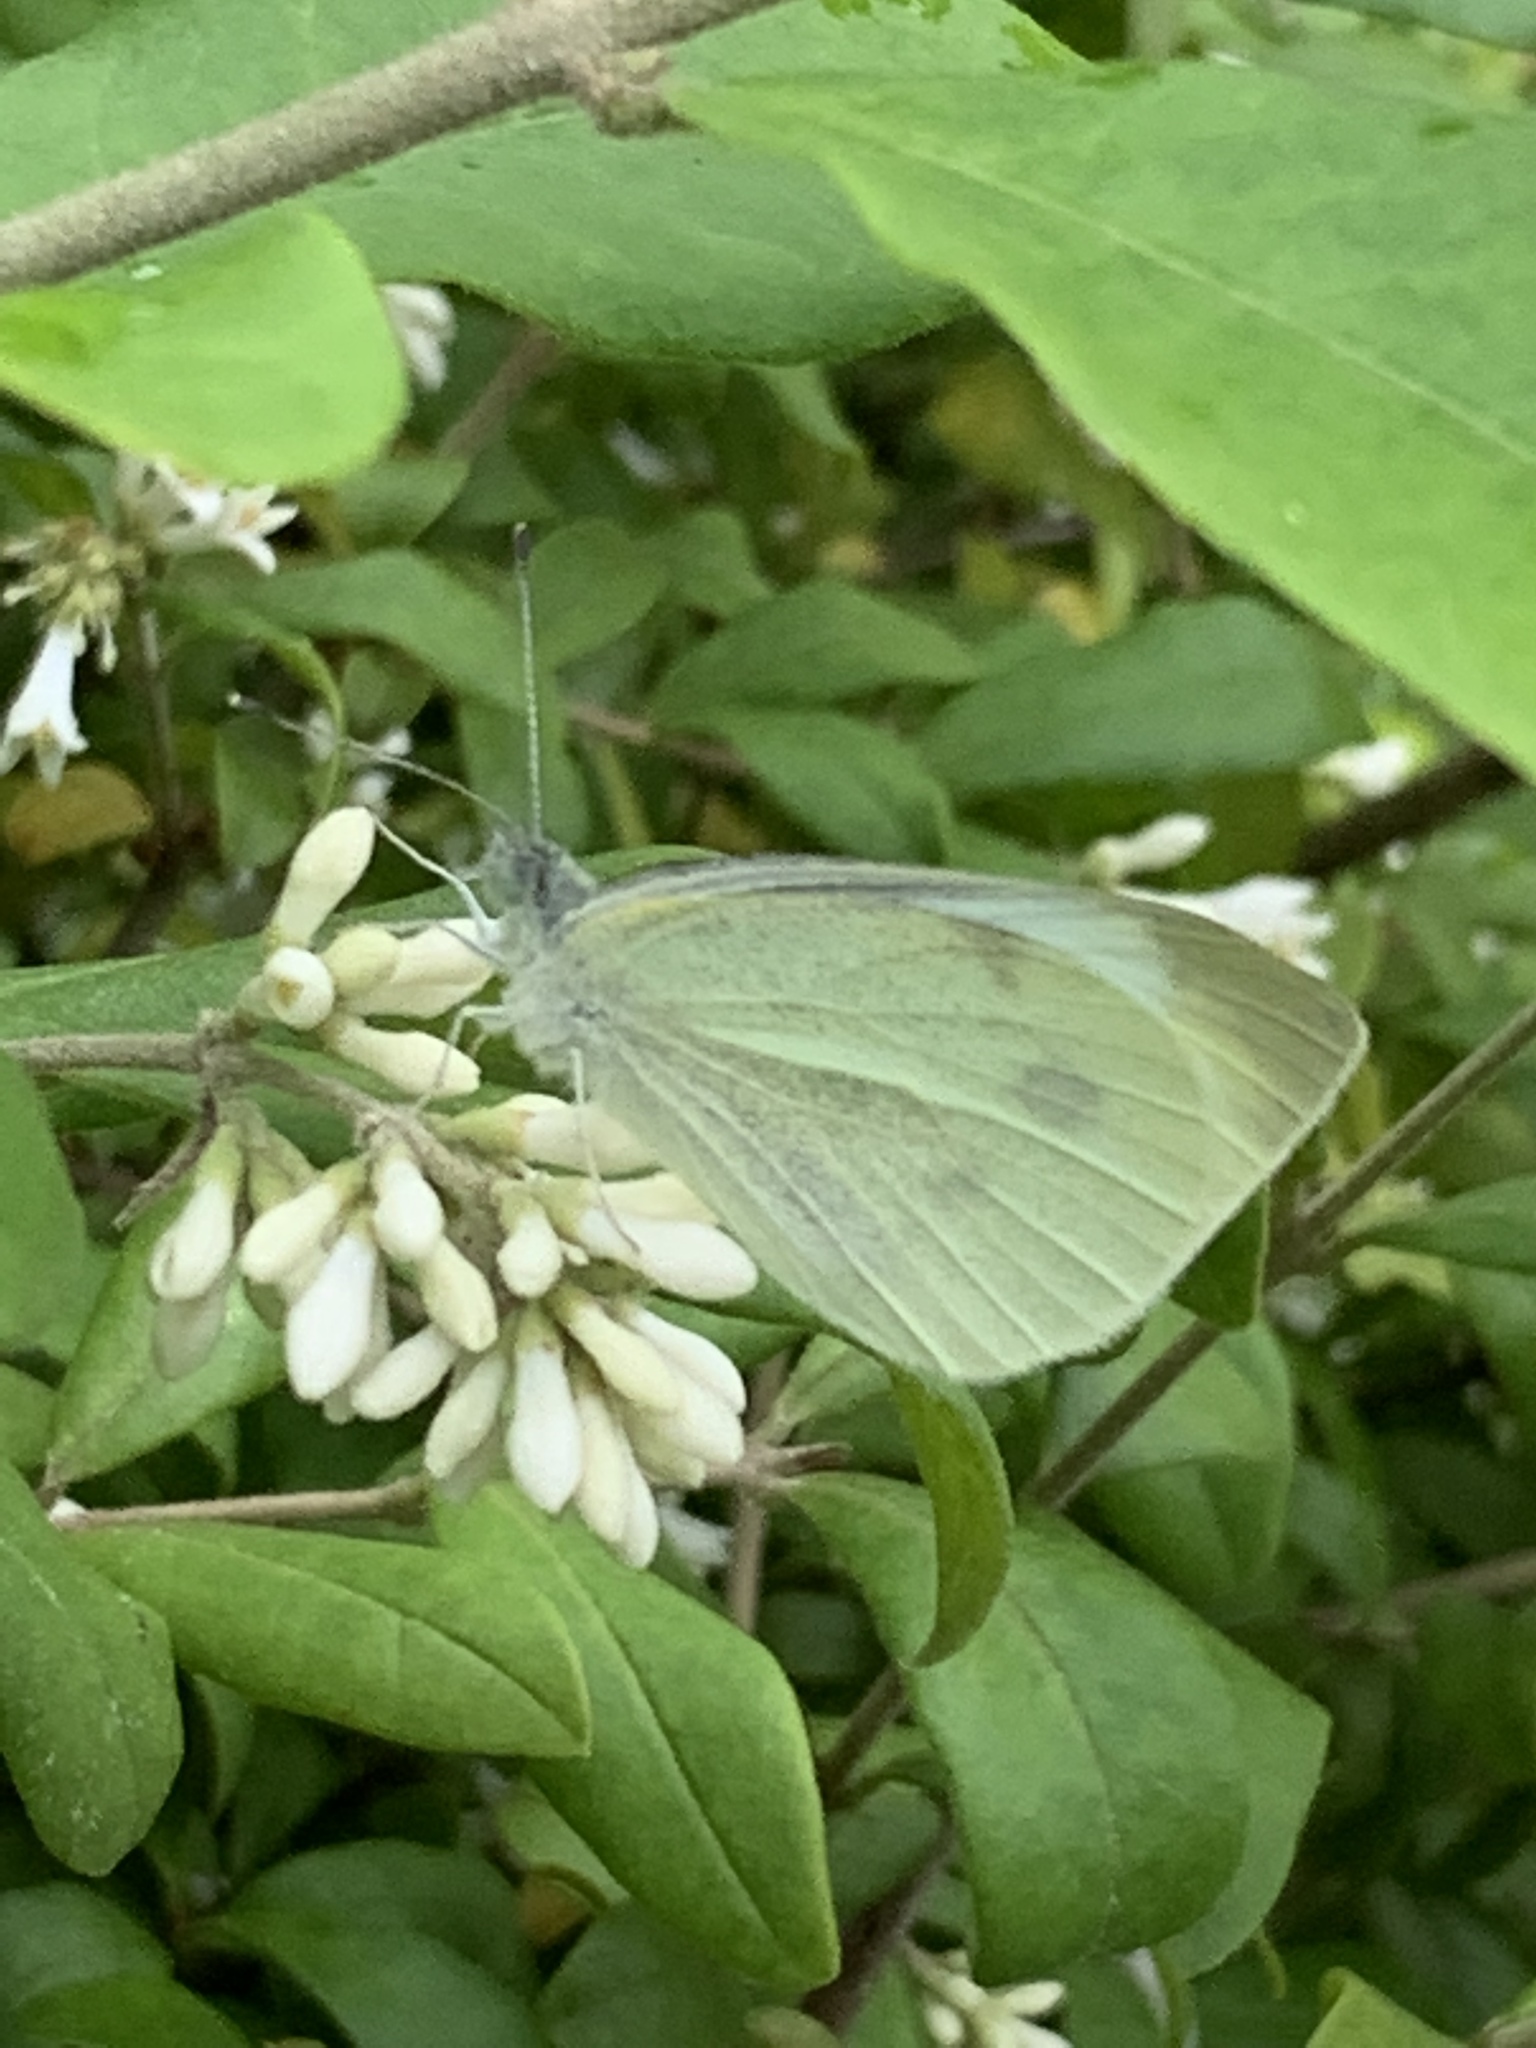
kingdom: Animalia
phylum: Arthropoda
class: Insecta
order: Lepidoptera
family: Pieridae
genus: Pieris
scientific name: Pieris rapae
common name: Small white
